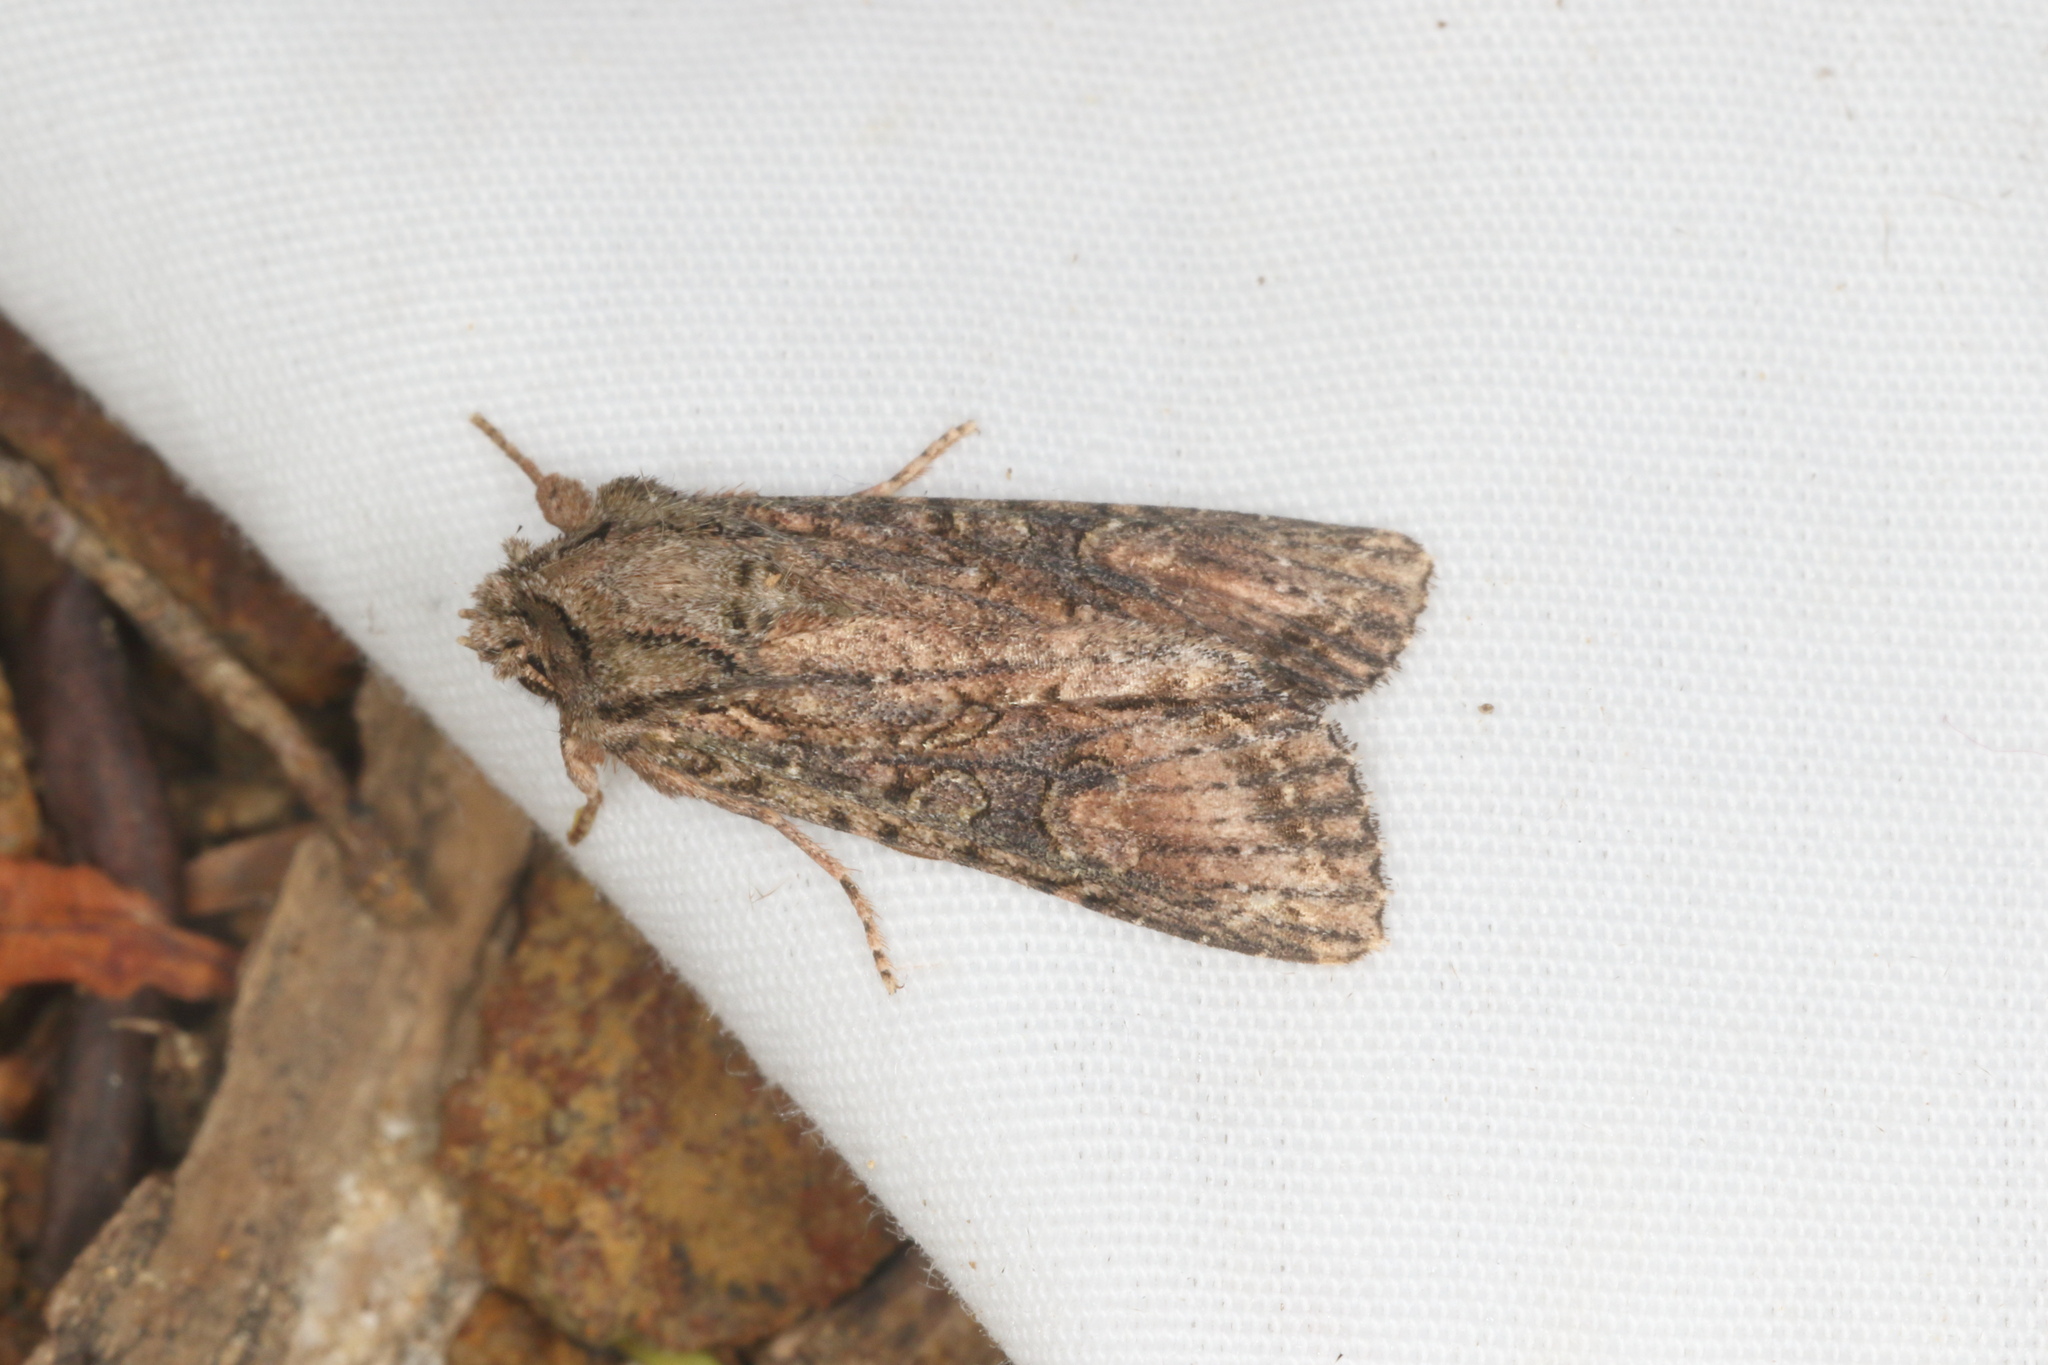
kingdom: Animalia
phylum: Arthropoda
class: Insecta
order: Lepidoptera
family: Noctuidae
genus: Ichneutica
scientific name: Ichneutica mutans
